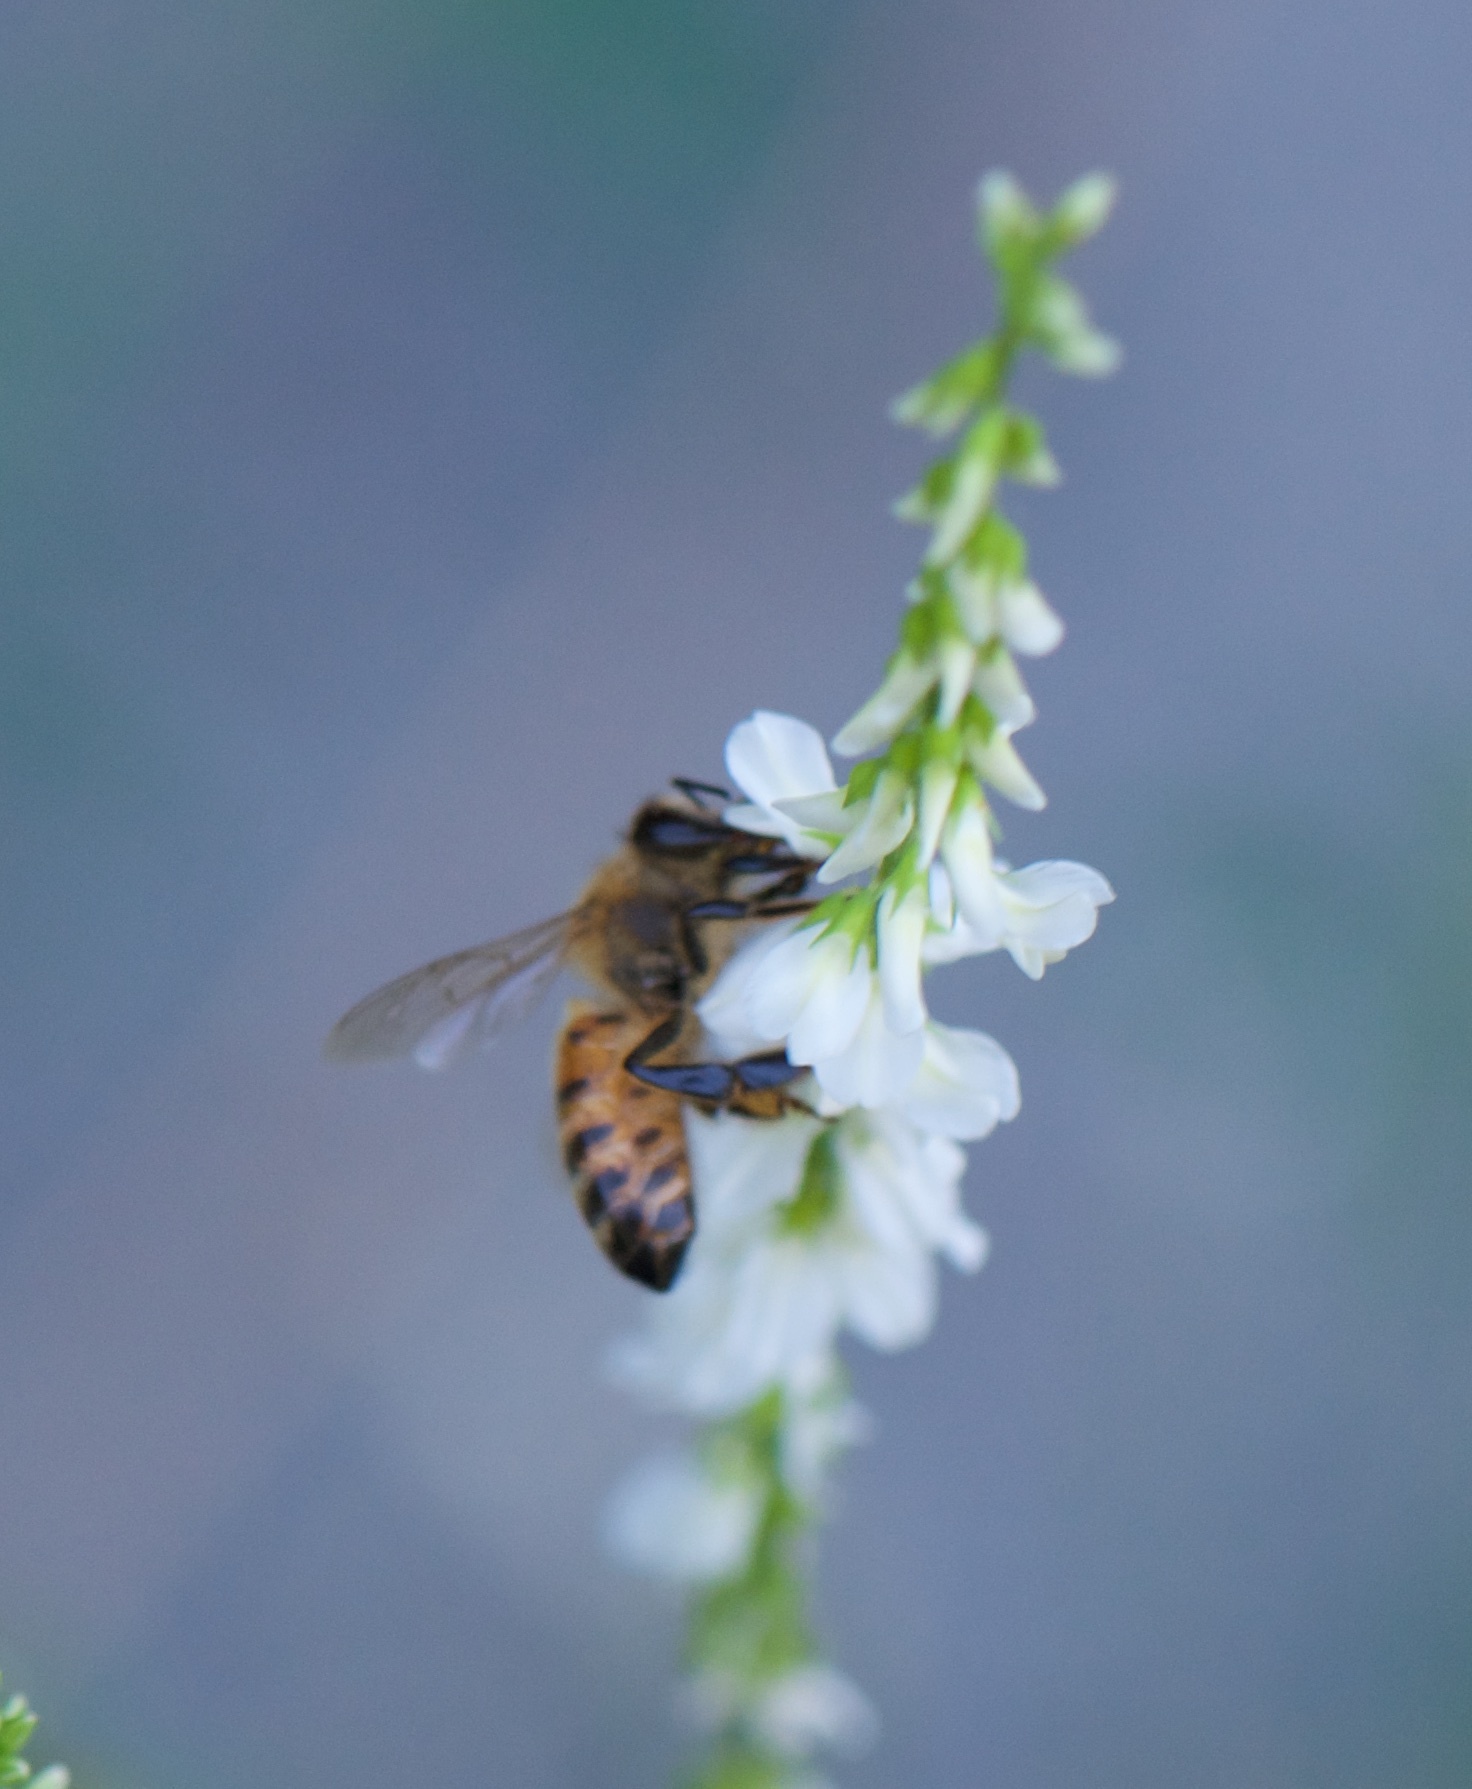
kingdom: Animalia
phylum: Arthropoda
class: Insecta
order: Hymenoptera
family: Apidae
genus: Apis
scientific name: Apis mellifera
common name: Honey bee
